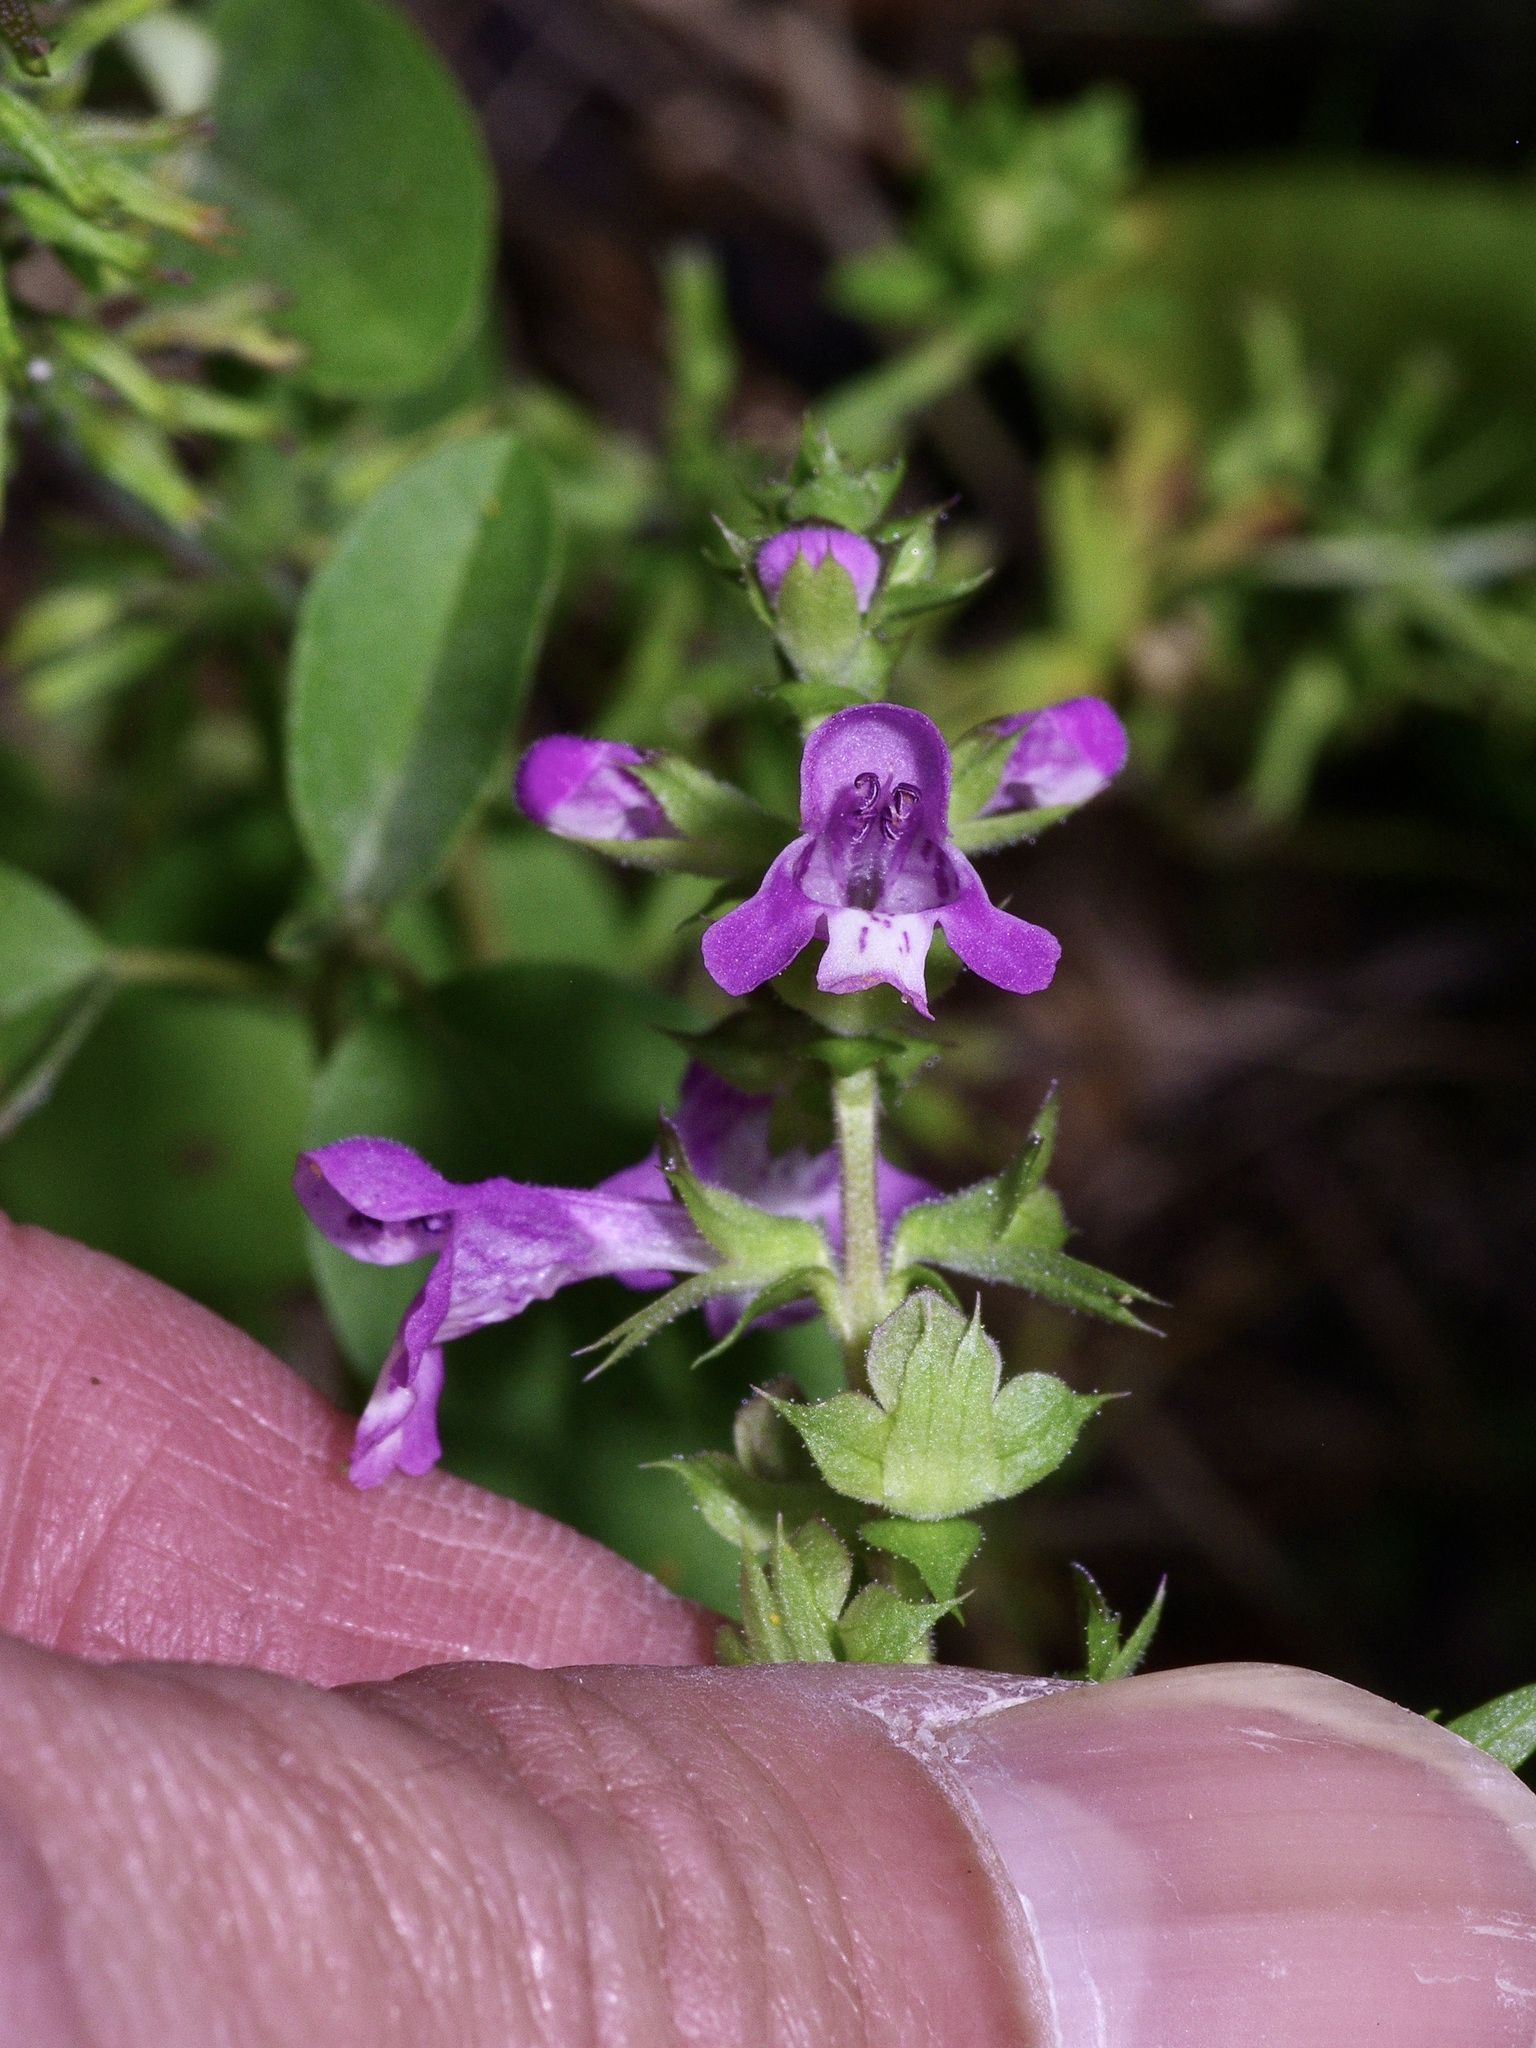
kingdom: Plantae
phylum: Tracheophyta
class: Magnoliopsida
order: Lamiales
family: Lamiaceae
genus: Warnockia
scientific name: Warnockia scutellarioides
